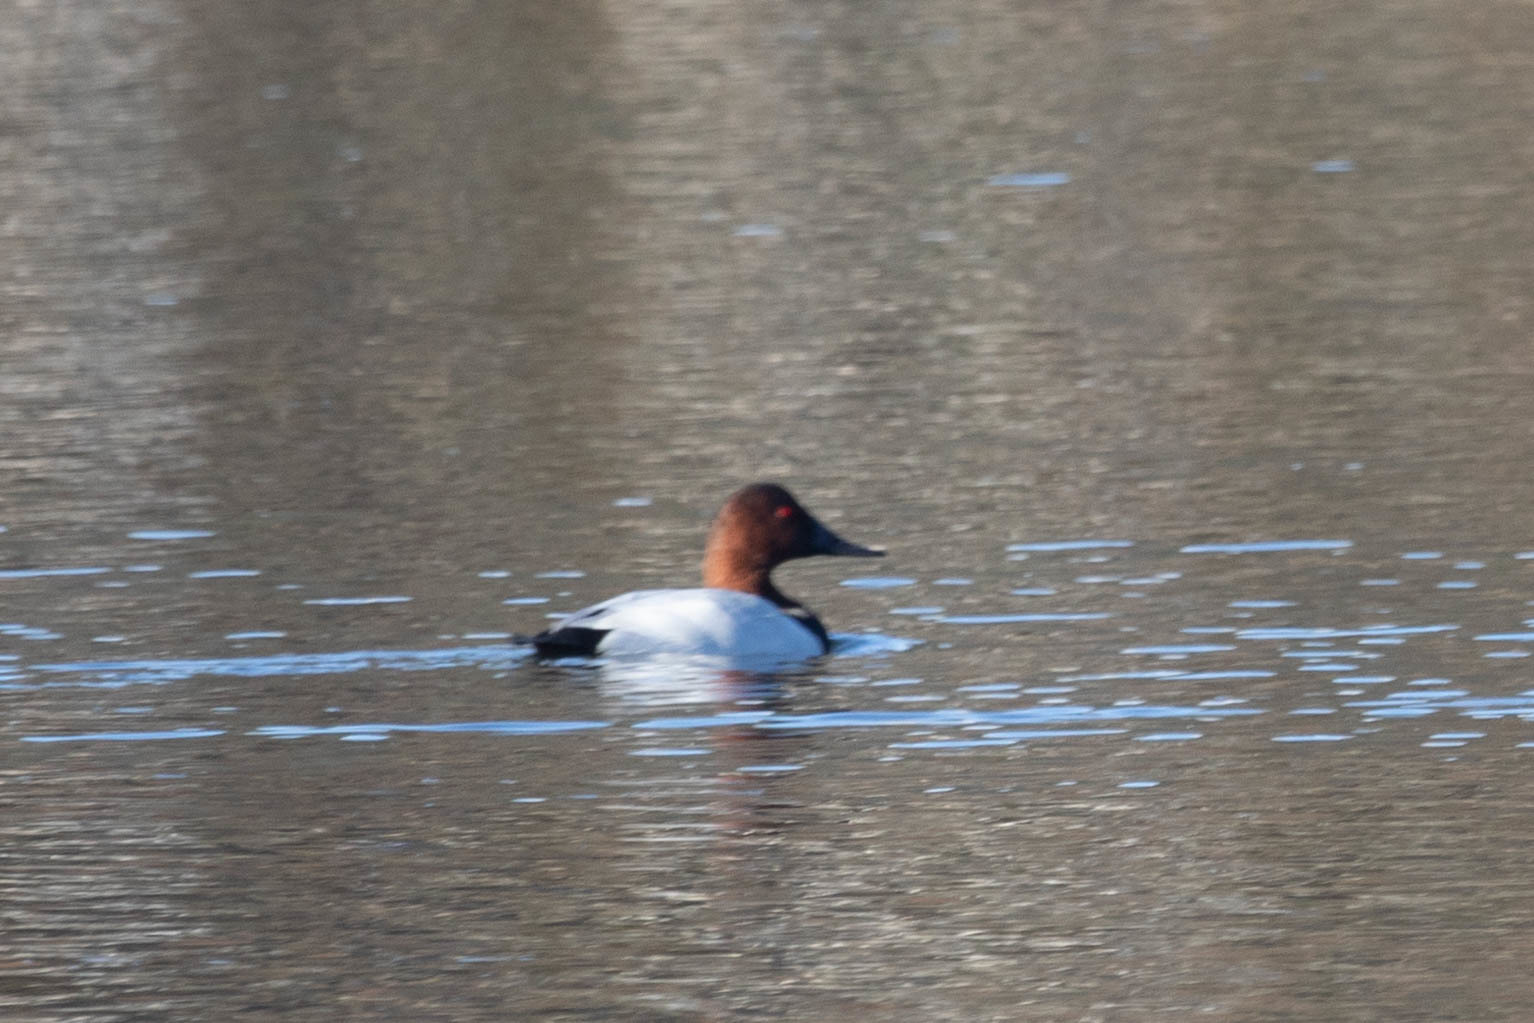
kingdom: Animalia
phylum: Chordata
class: Aves
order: Anseriformes
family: Anatidae
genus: Aythya
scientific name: Aythya valisineria
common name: Canvasback
